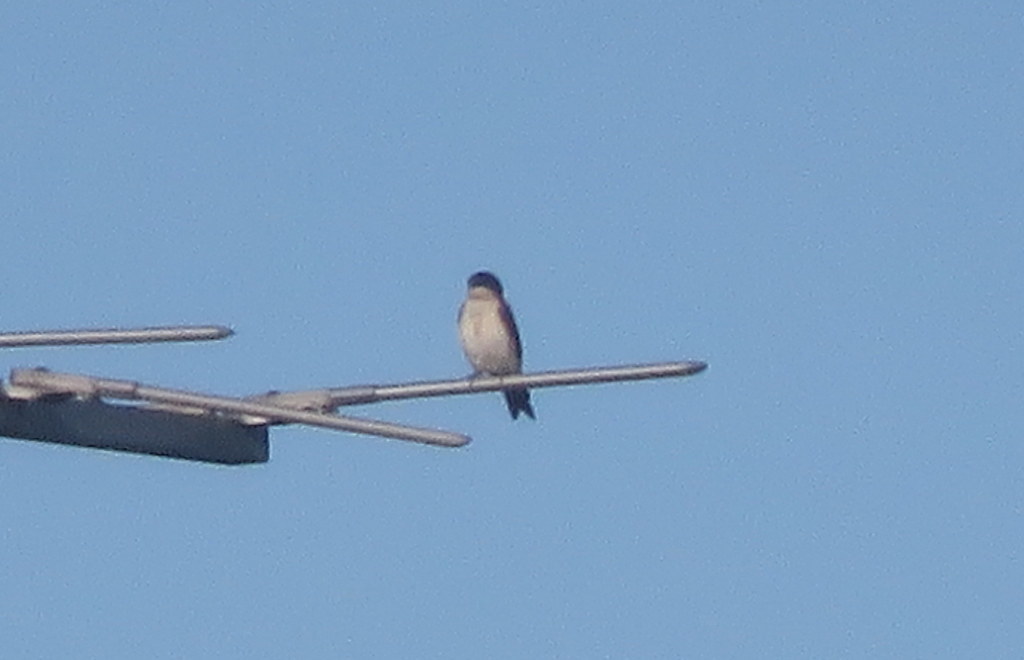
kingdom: Animalia
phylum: Chordata
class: Aves
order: Passeriformes
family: Hirundinidae
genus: Notiochelidon
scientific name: Notiochelidon cyanoleuca
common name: Blue-and-white swallow
